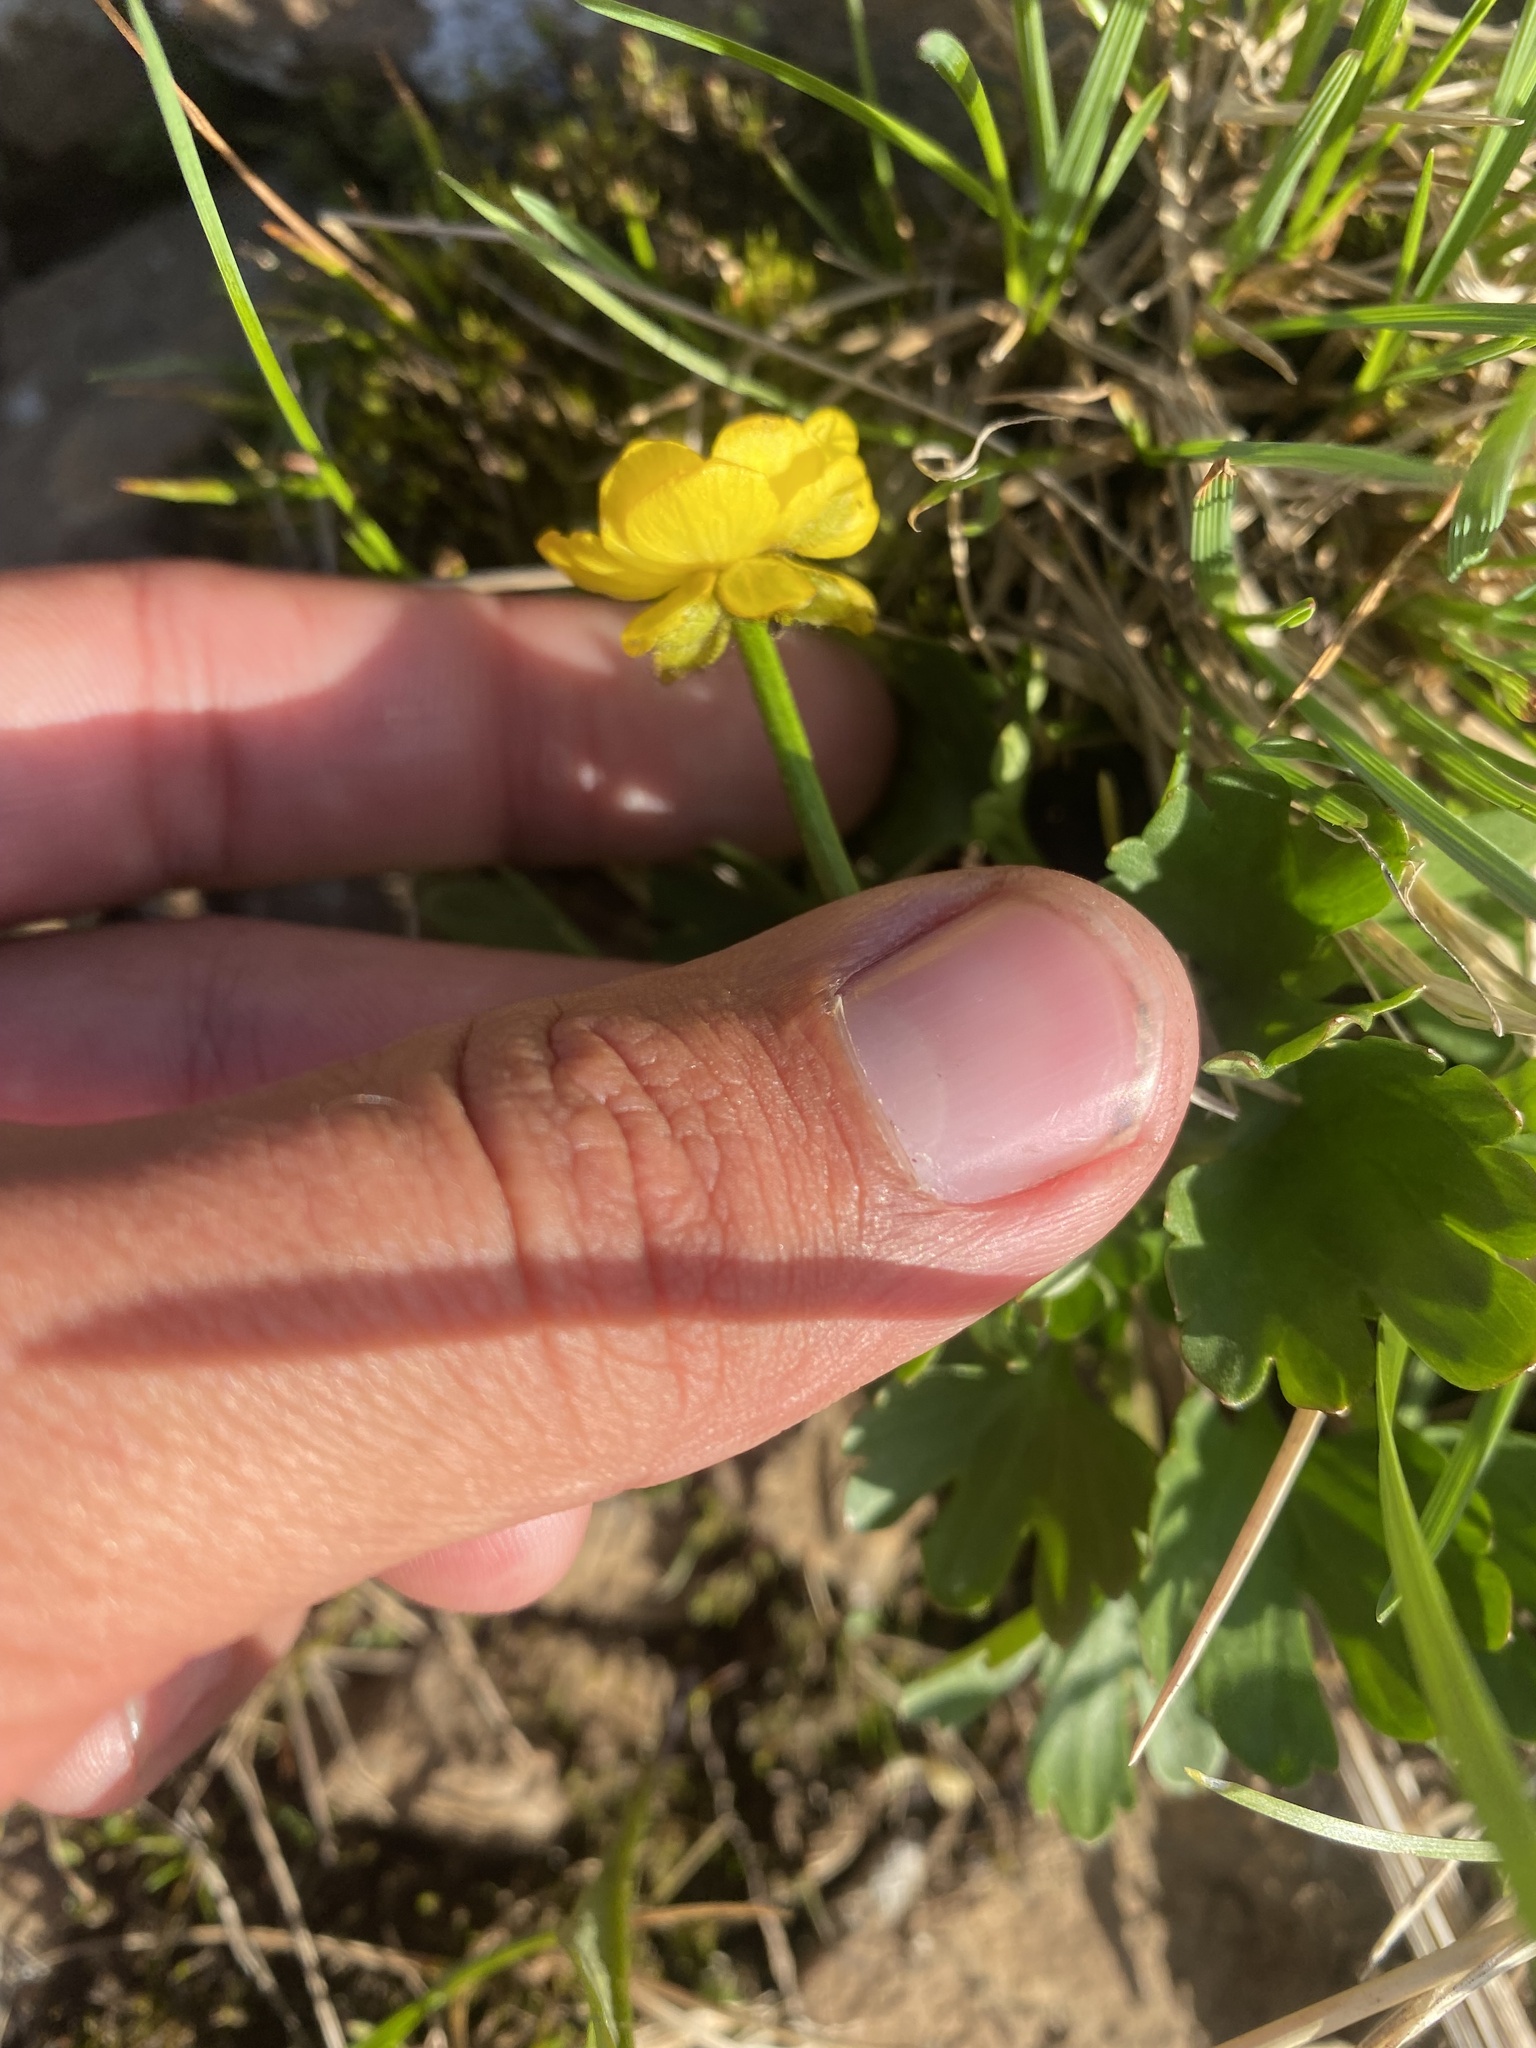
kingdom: Plantae
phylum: Tracheophyta
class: Magnoliopsida
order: Ranunculales
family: Ranunculaceae
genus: Ranunculus
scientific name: Ranunculus sulphureus
